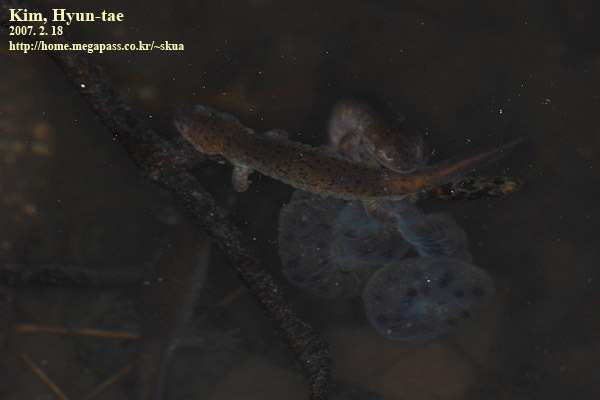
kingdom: Animalia
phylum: Chordata
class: Amphibia
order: Caudata
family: Hynobiidae
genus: Hynobius
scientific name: Hynobius leechii
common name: Gensan salamander
